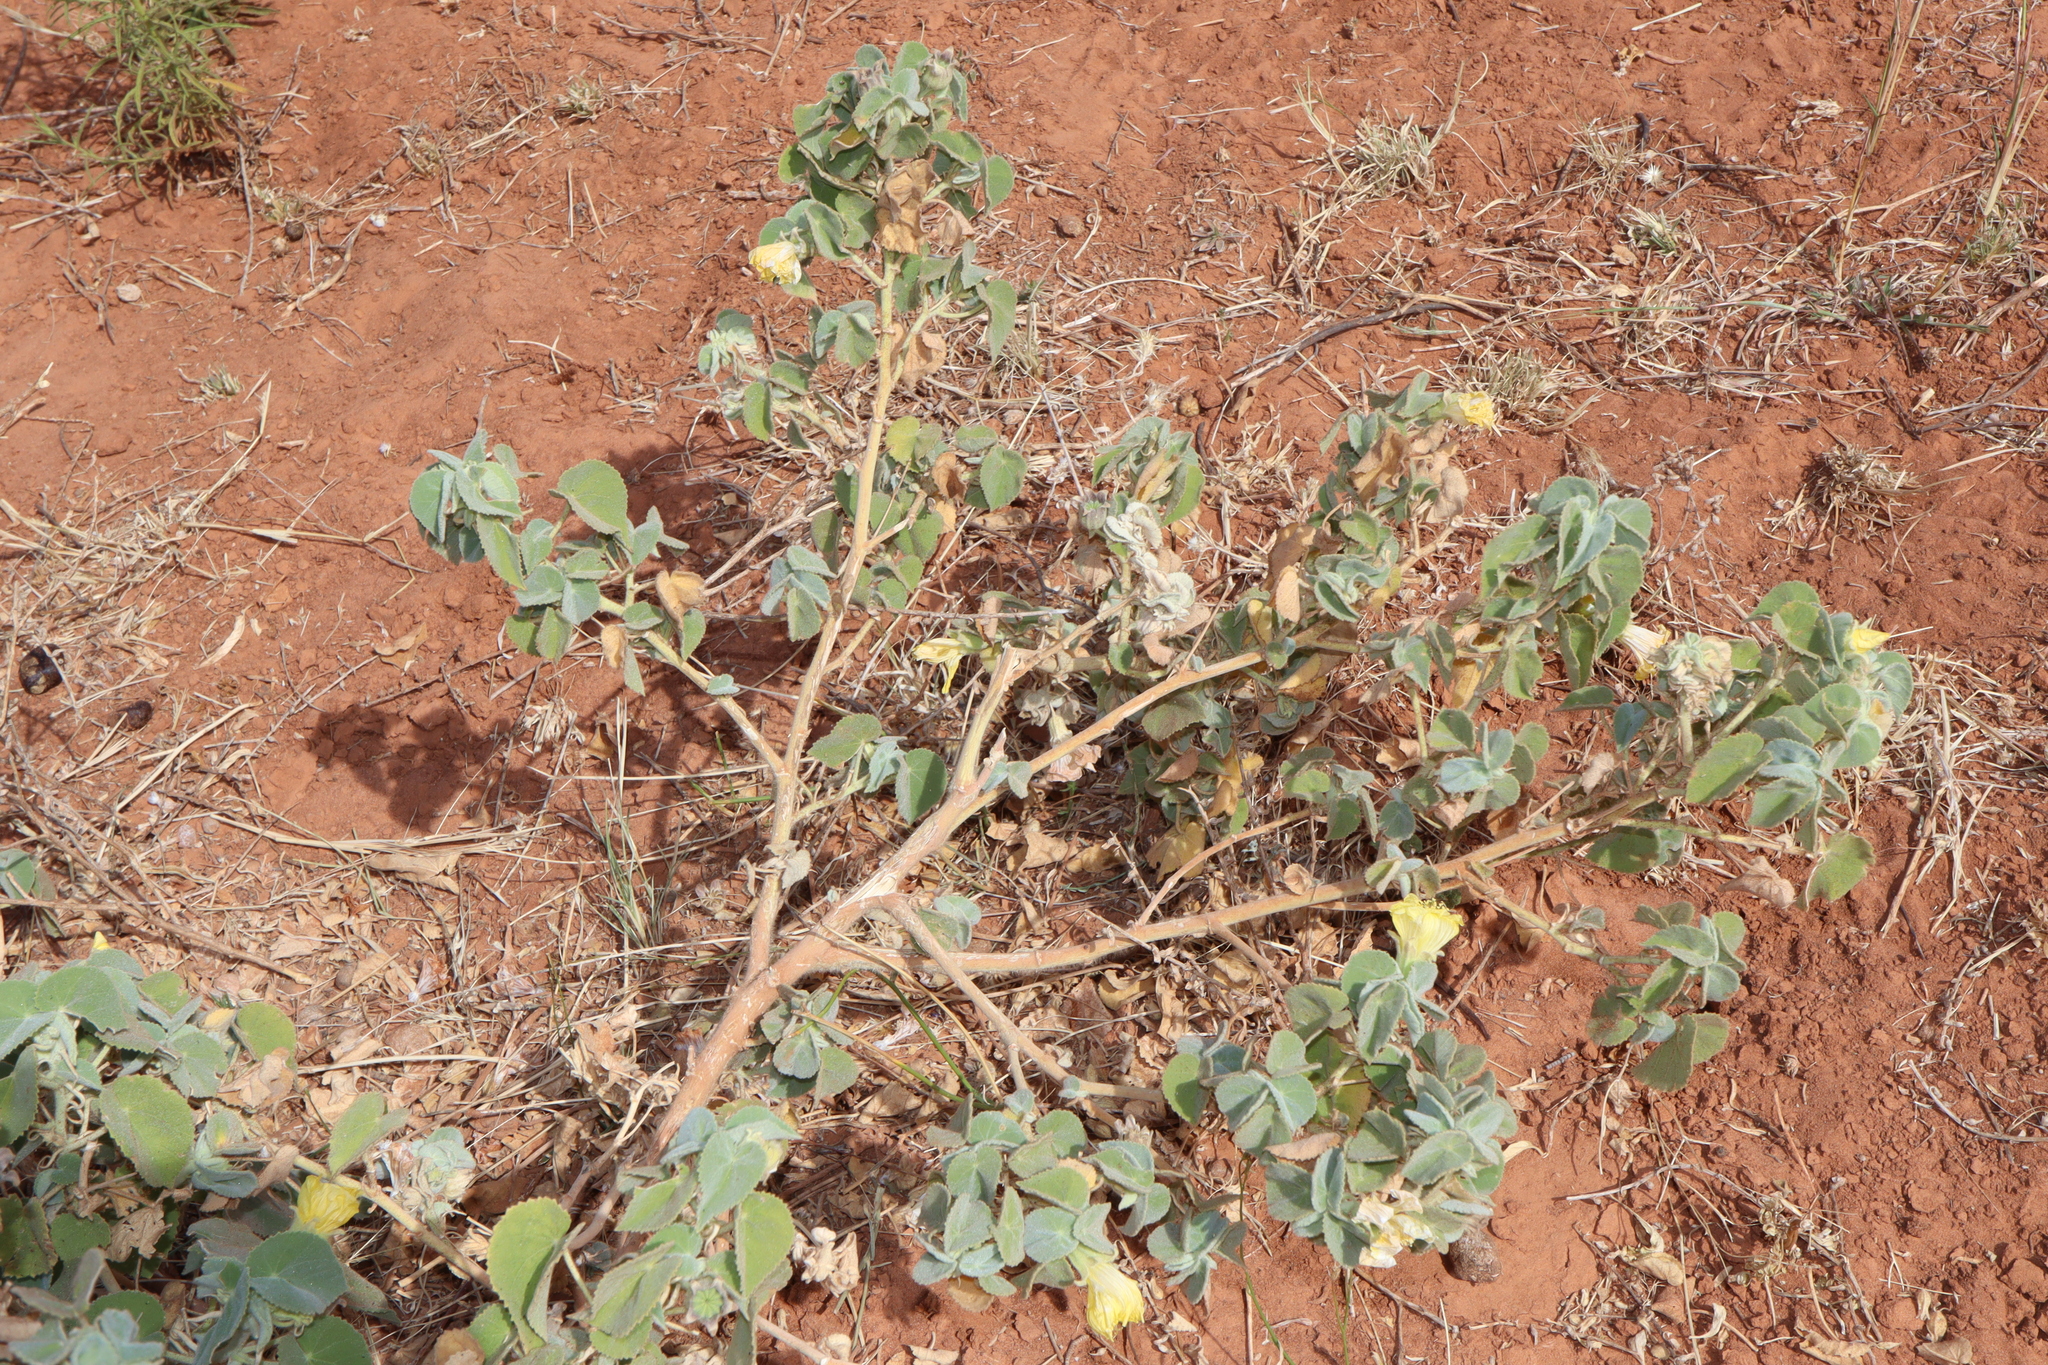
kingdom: Plantae
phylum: Tracheophyta
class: Magnoliopsida
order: Malvales
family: Malvaceae
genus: Abutilon
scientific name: Abutilon leucopetalum
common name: Lanternbush
